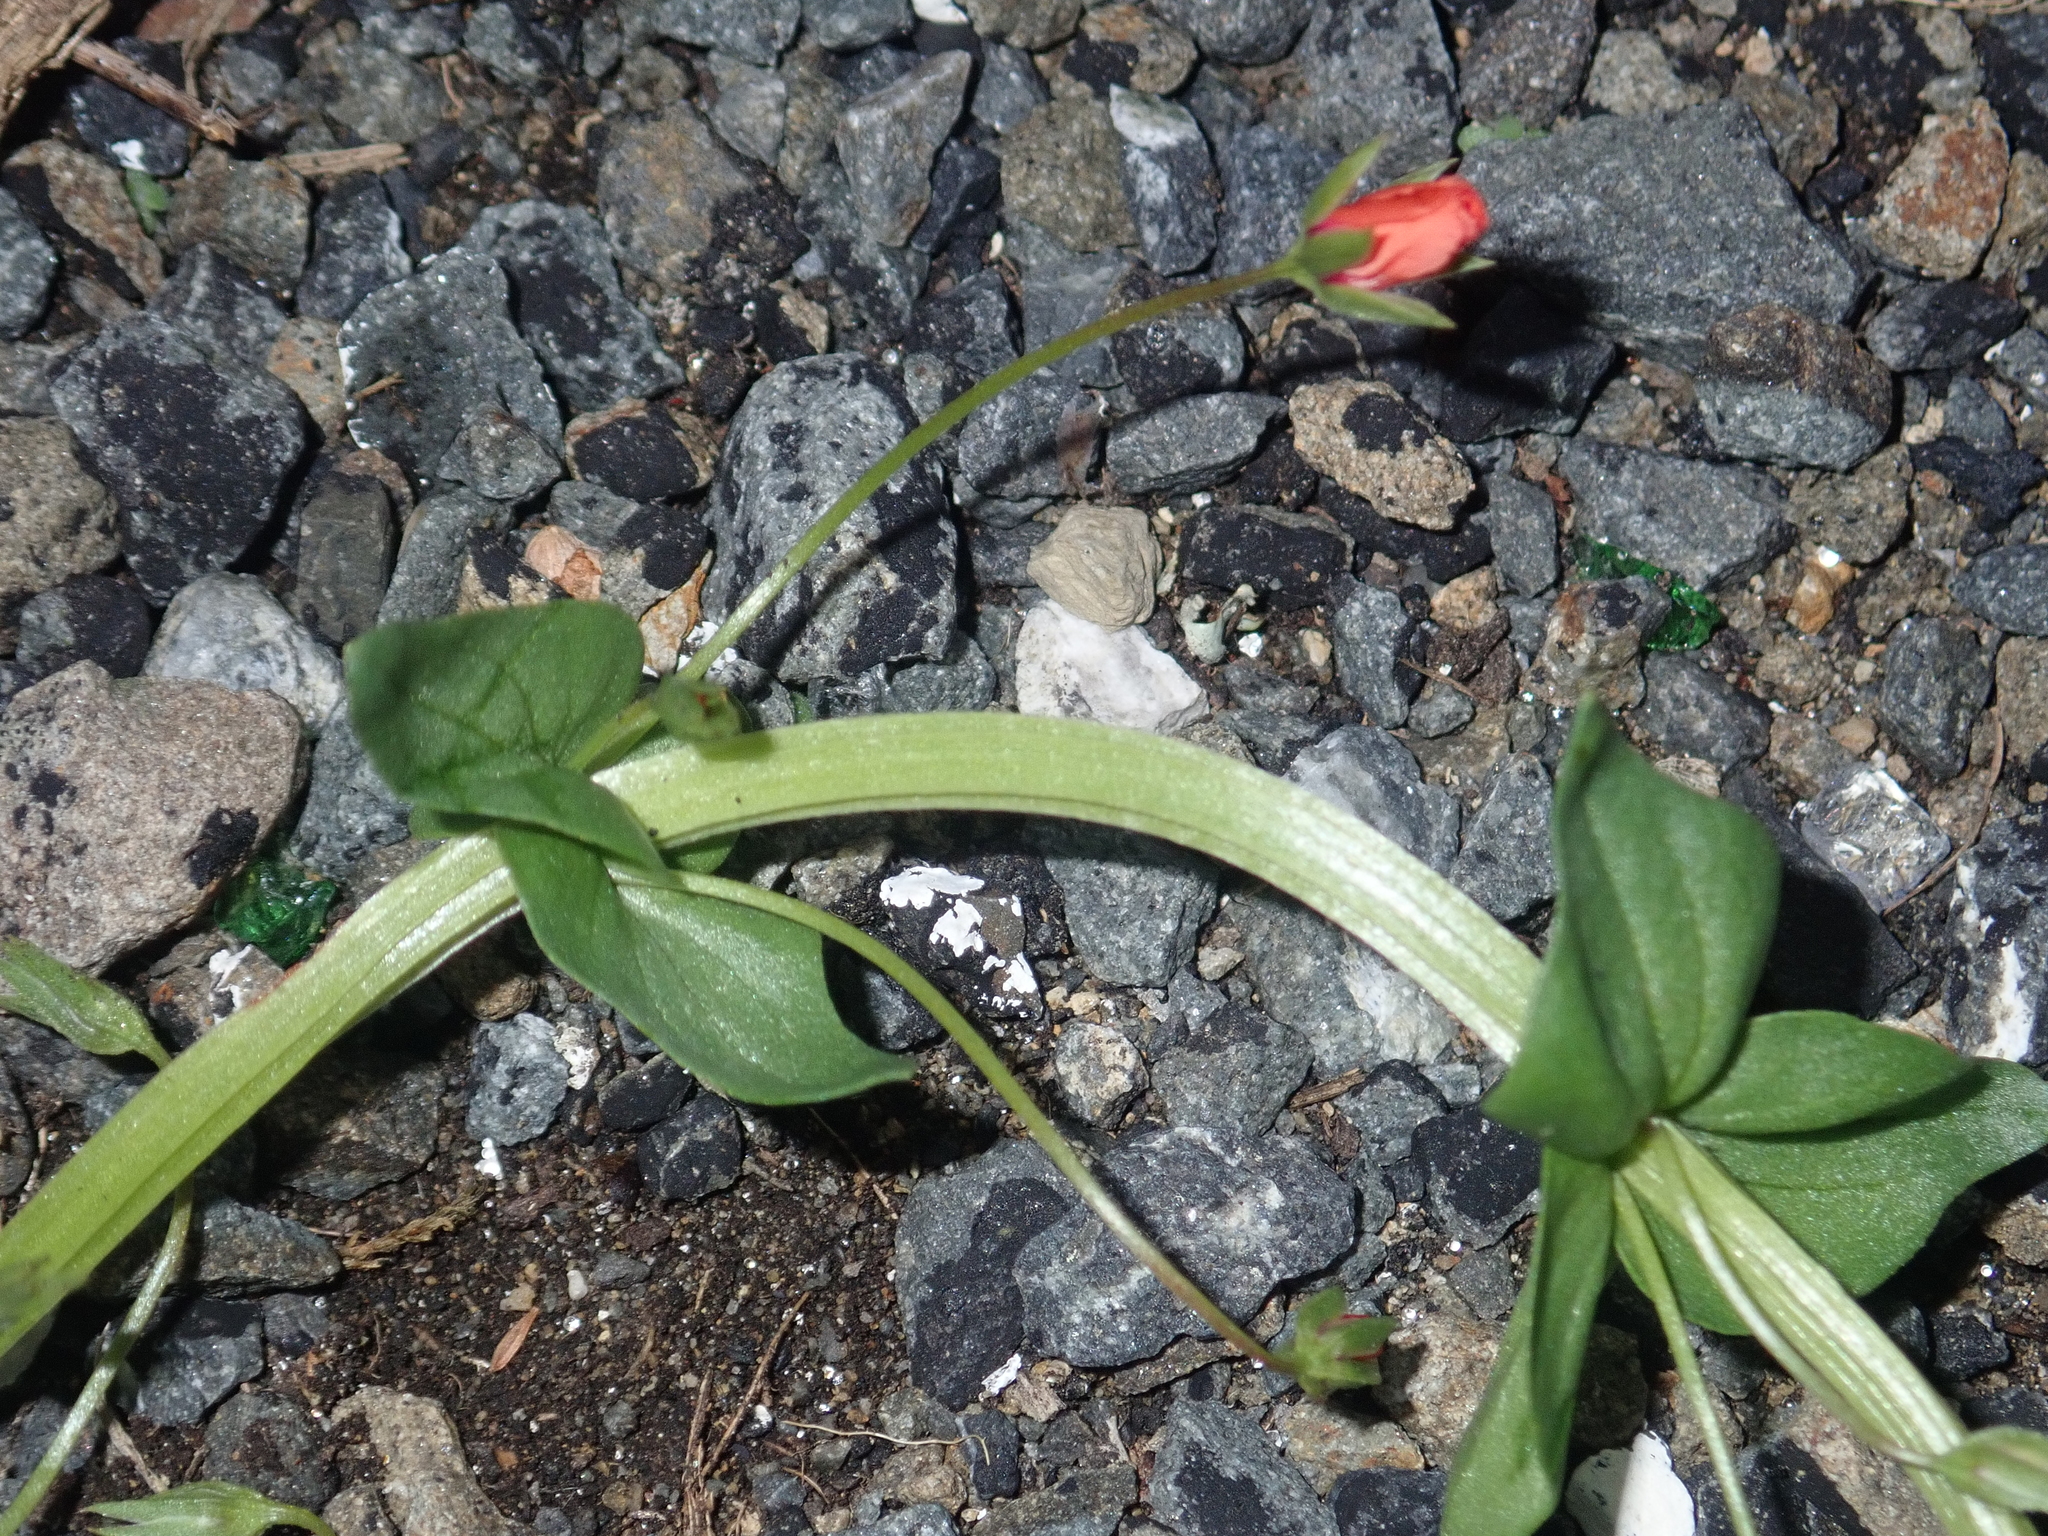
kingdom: Plantae
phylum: Tracheophyta
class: Magnoliopsida
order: Ericales
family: Primulaceae
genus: Lysimachia
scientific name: Lysimachia arvensis
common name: Scarlet pimpernel
